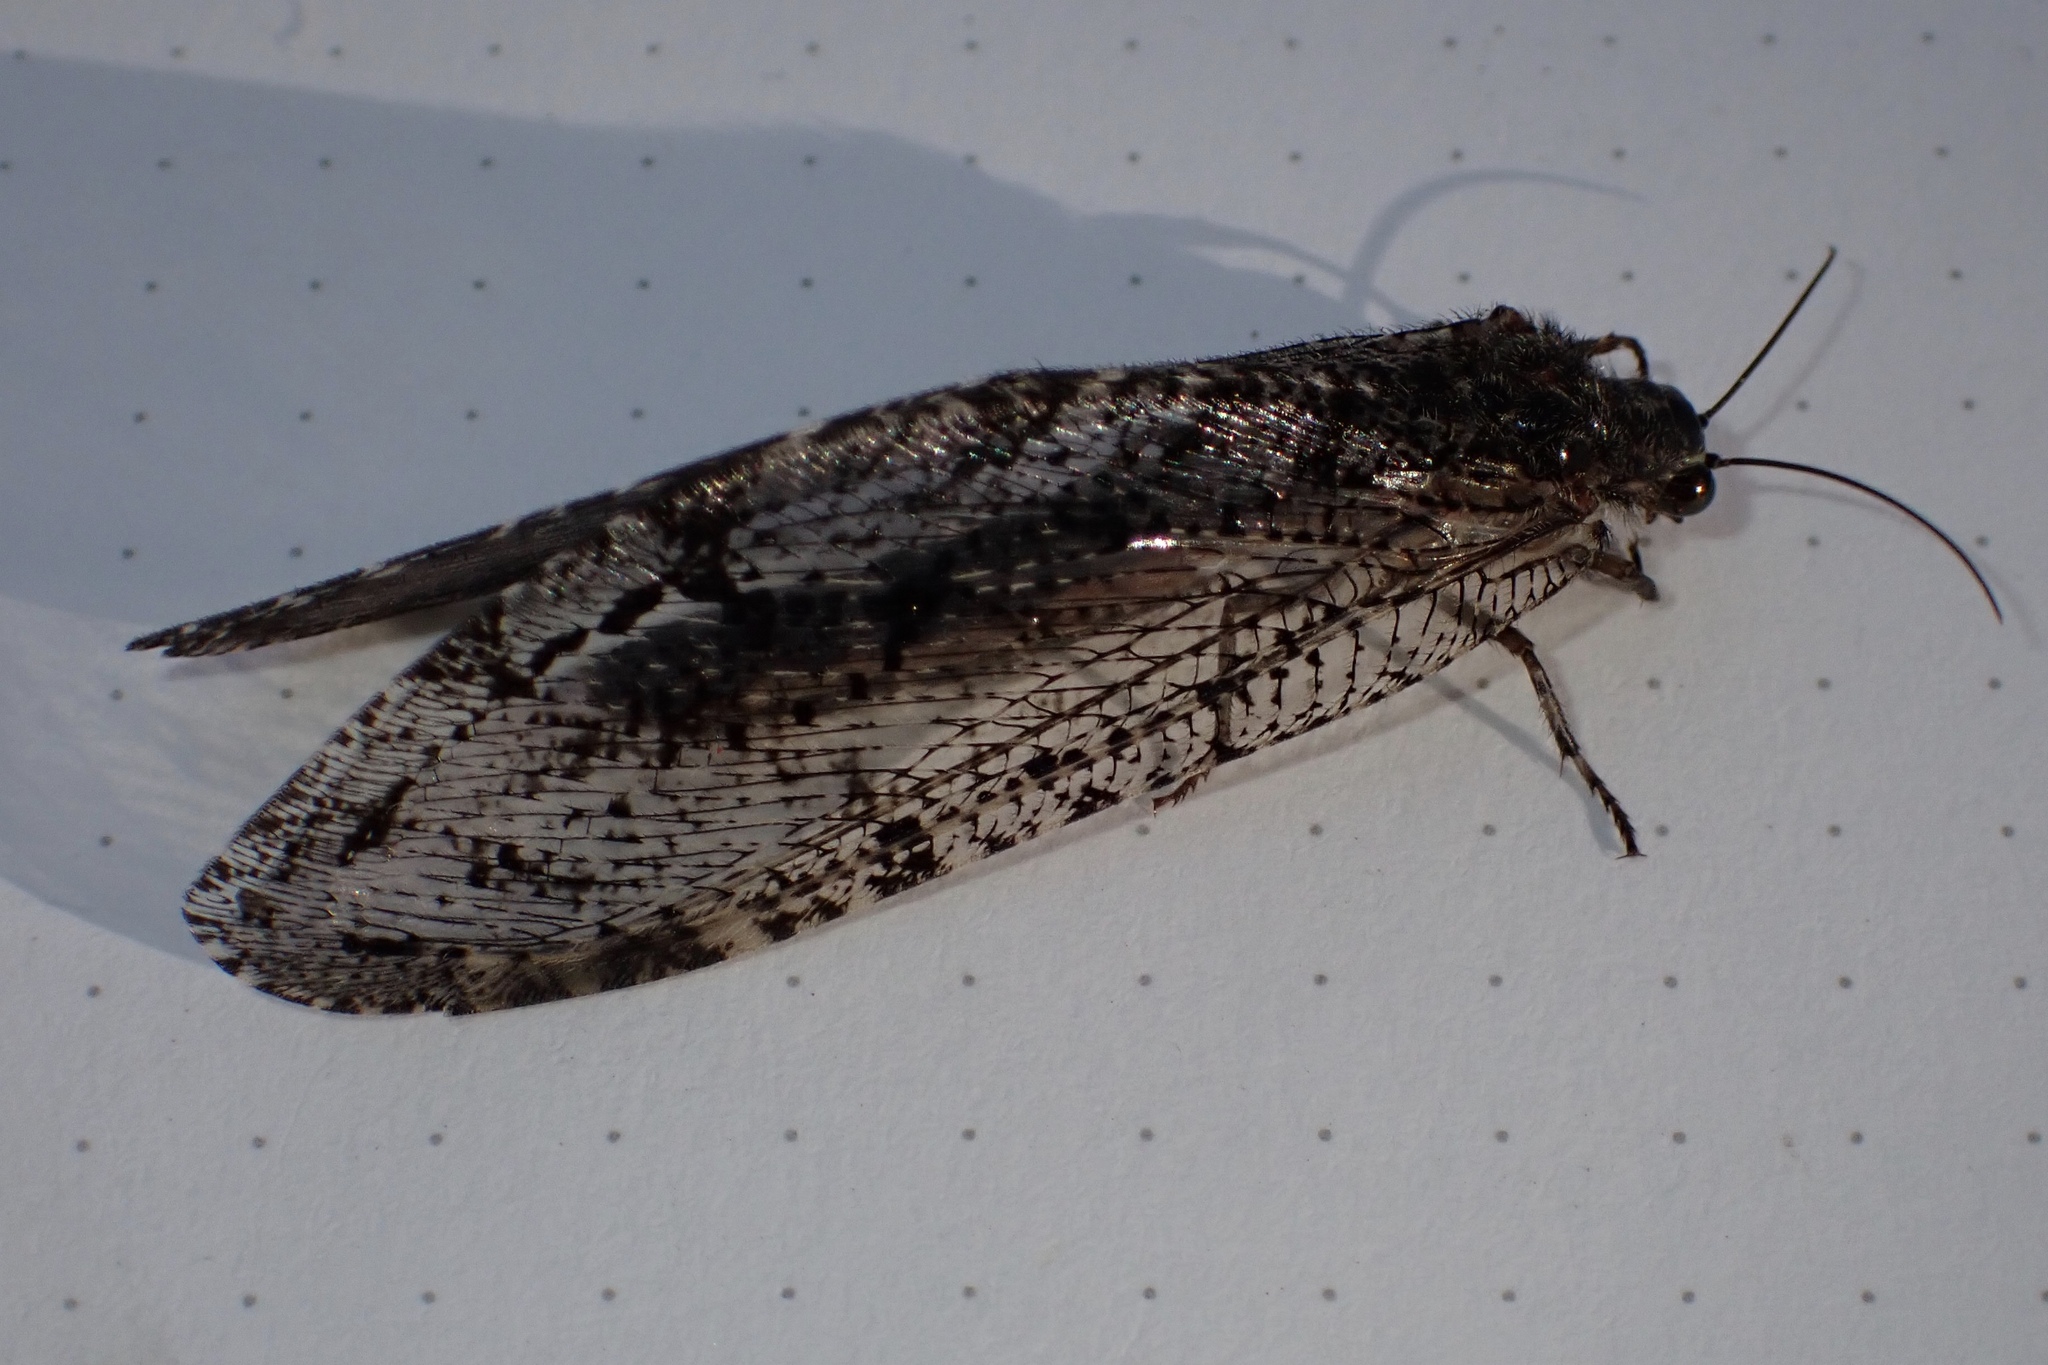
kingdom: Animalia
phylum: Arthropoda
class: Insecta
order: Neuroptera
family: Ithonidae
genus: Polystoechotes
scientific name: Polystoechotes punctata
